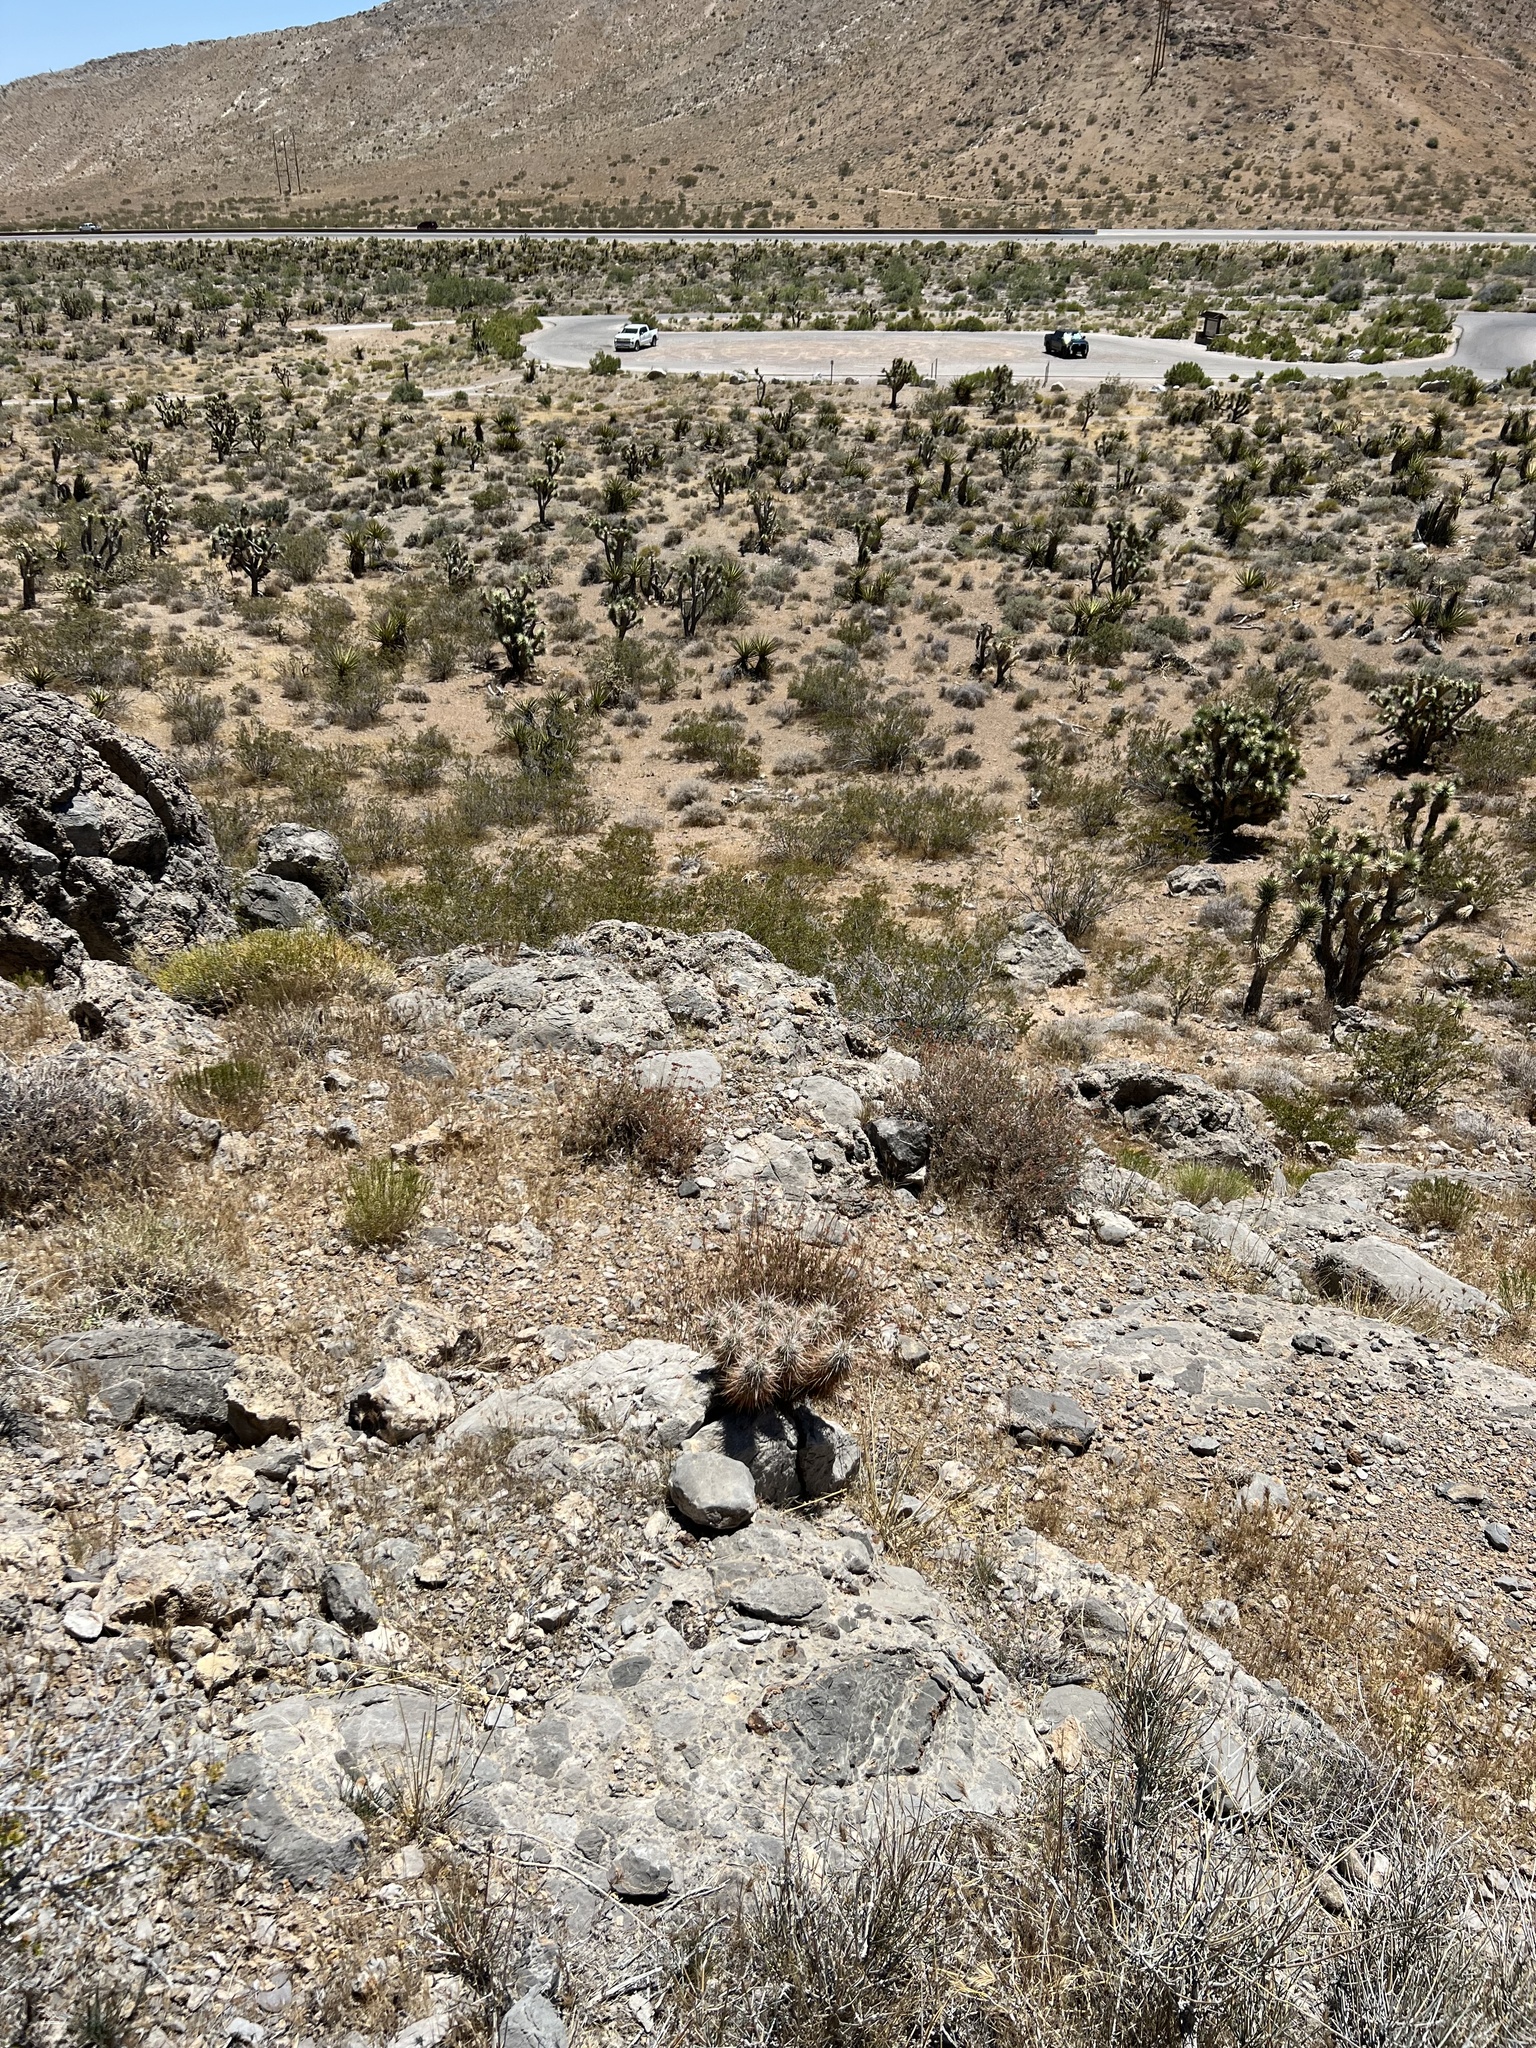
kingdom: Plantae
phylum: Tracheophyta
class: Magnoliopsida
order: Caryophyllales
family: Cactaceae
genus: Echinocereus
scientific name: Echinocereus engelmannii
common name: Engelmann's hedgehog cactus
